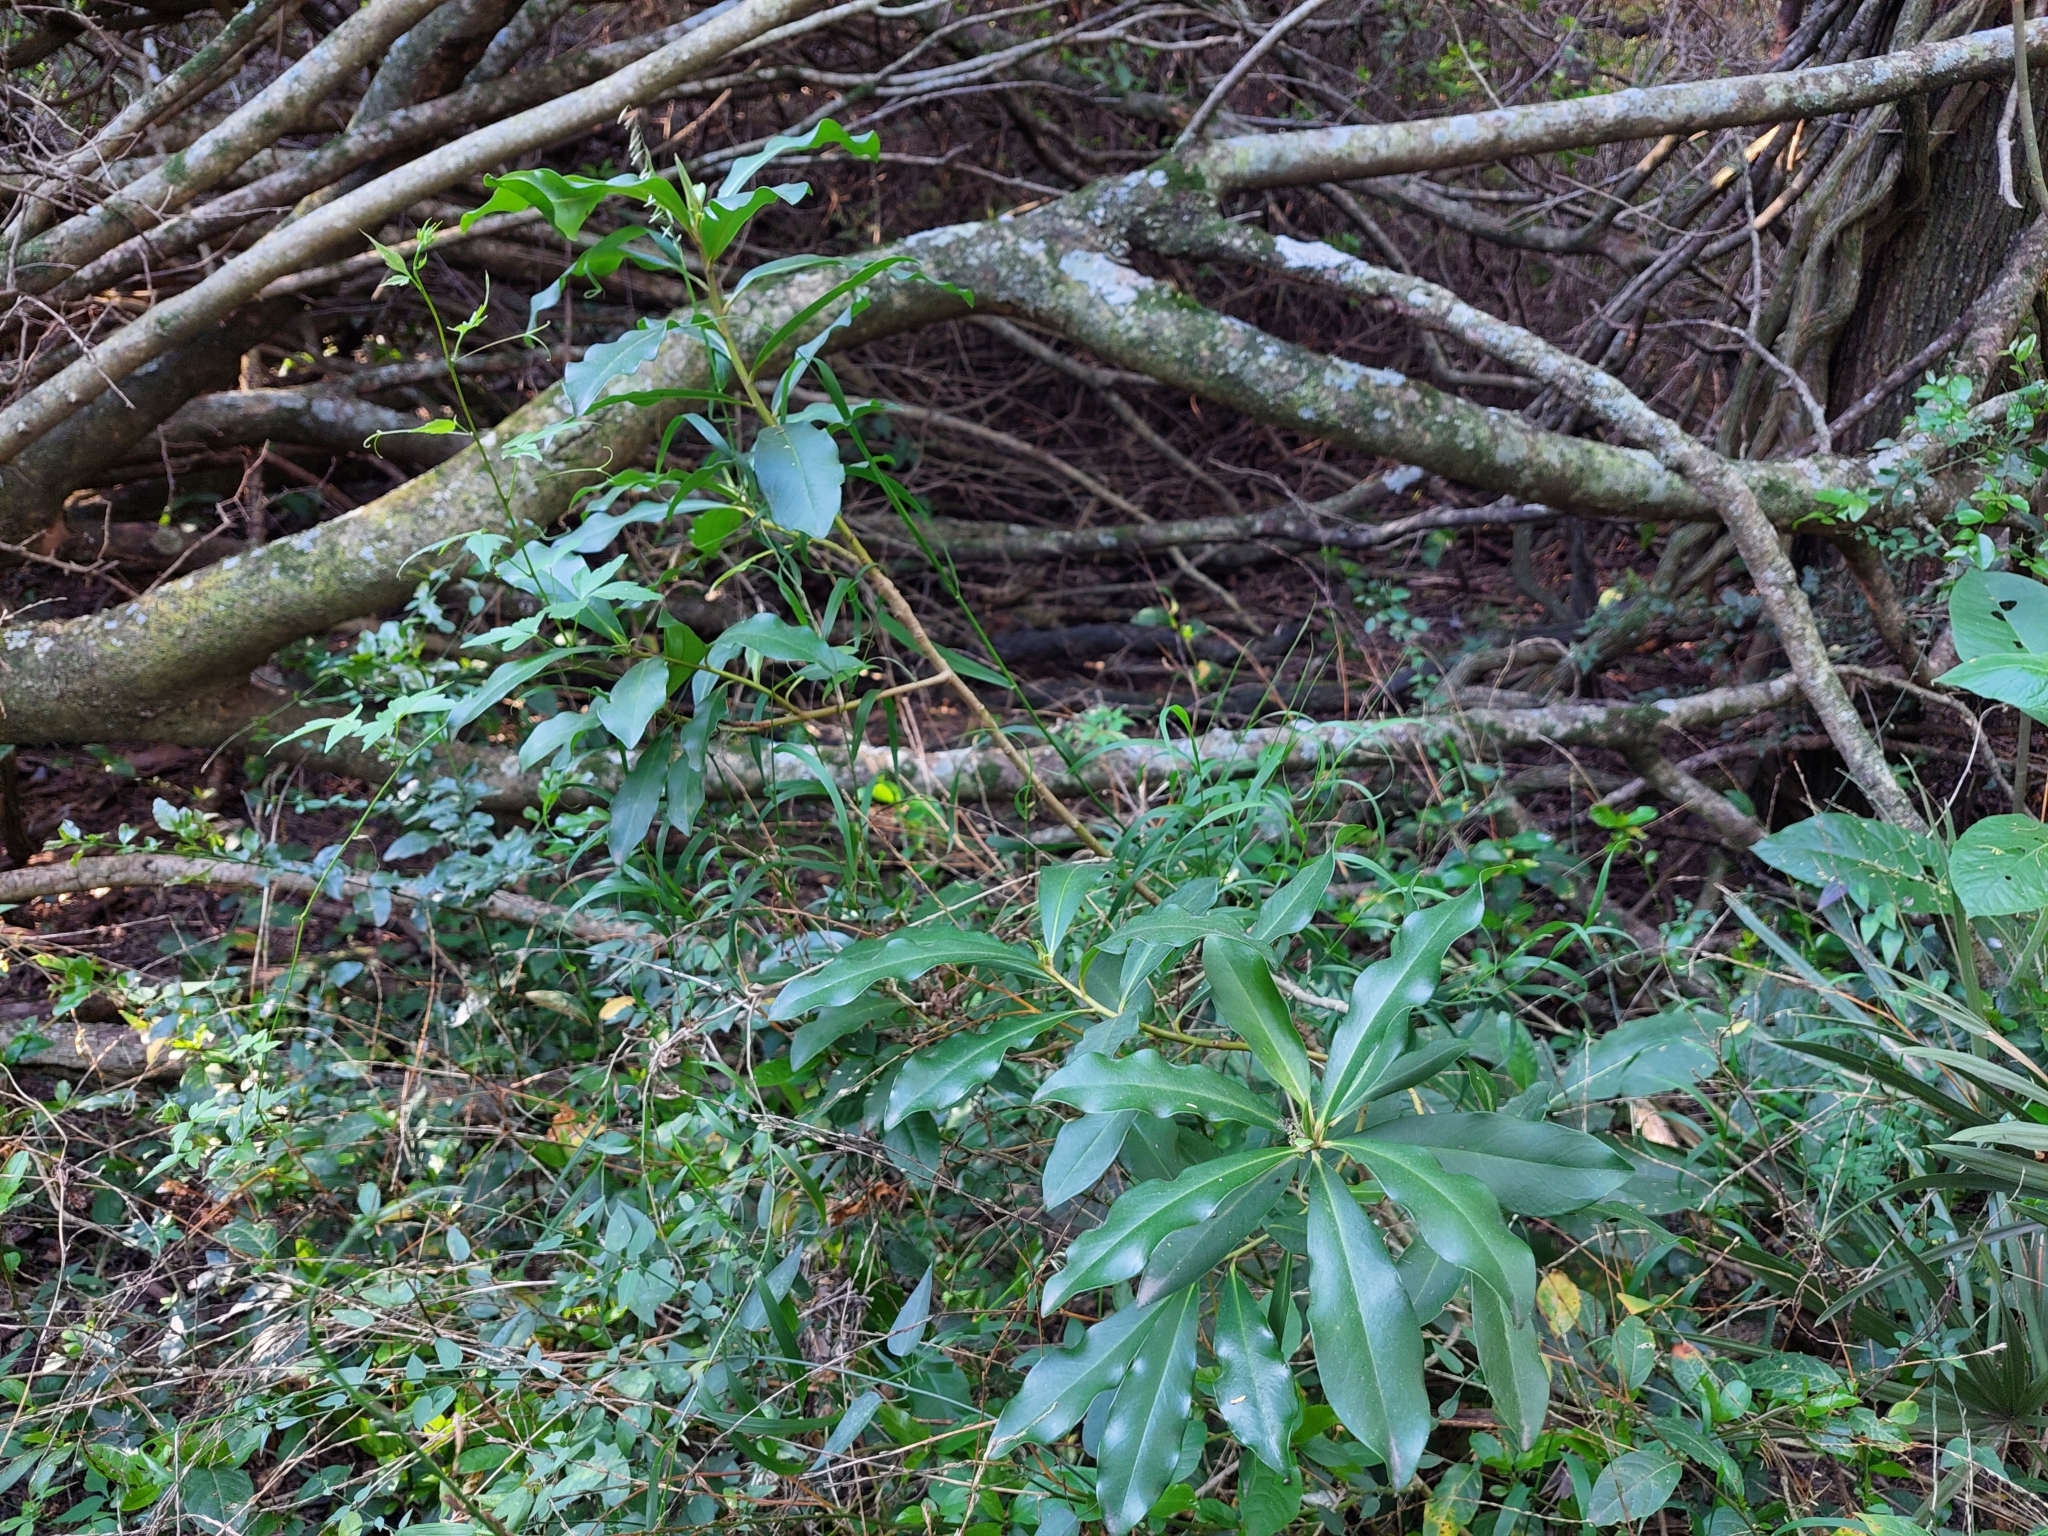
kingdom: Plantae
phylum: Tracheophyta
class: Magnoliopsida
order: Ericales
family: Primulaceae
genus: Myrsine
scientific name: Myrsine laetevirens
